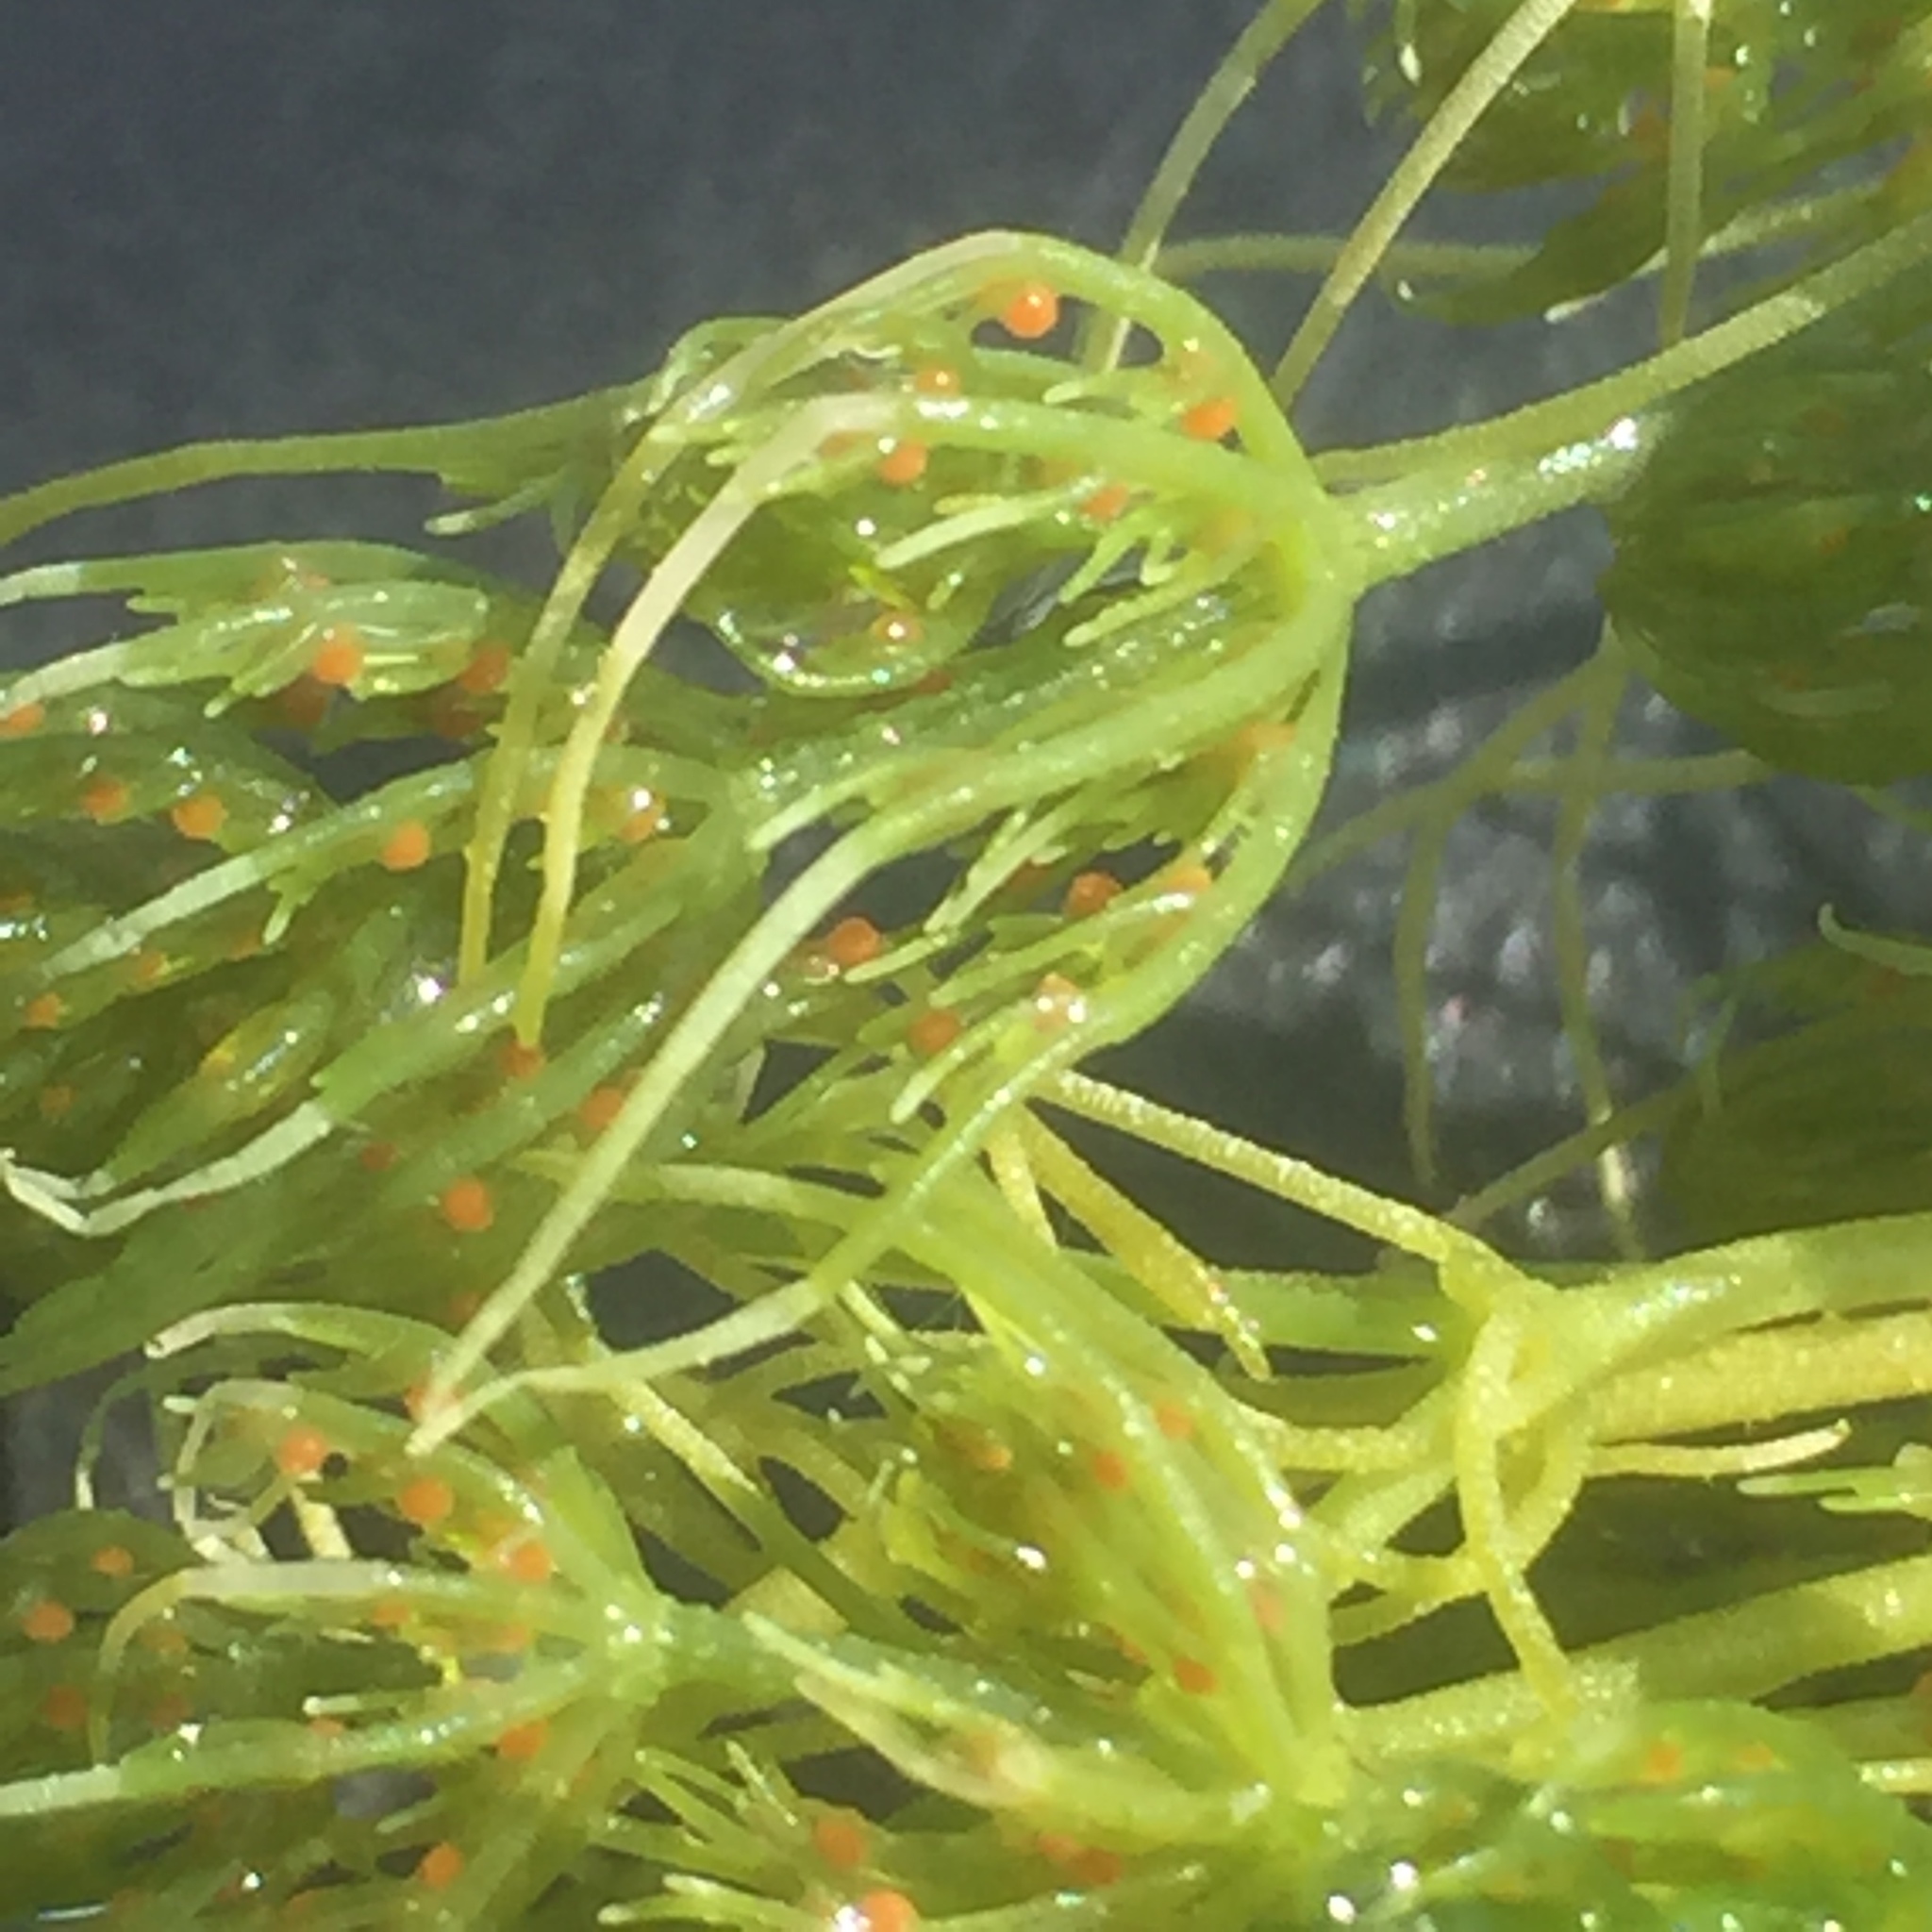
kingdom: Plantae
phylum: Charophyta
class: Charophyceae
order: Charales
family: Characeae
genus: Chara
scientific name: Chara vulgaris
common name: Common stonewort
